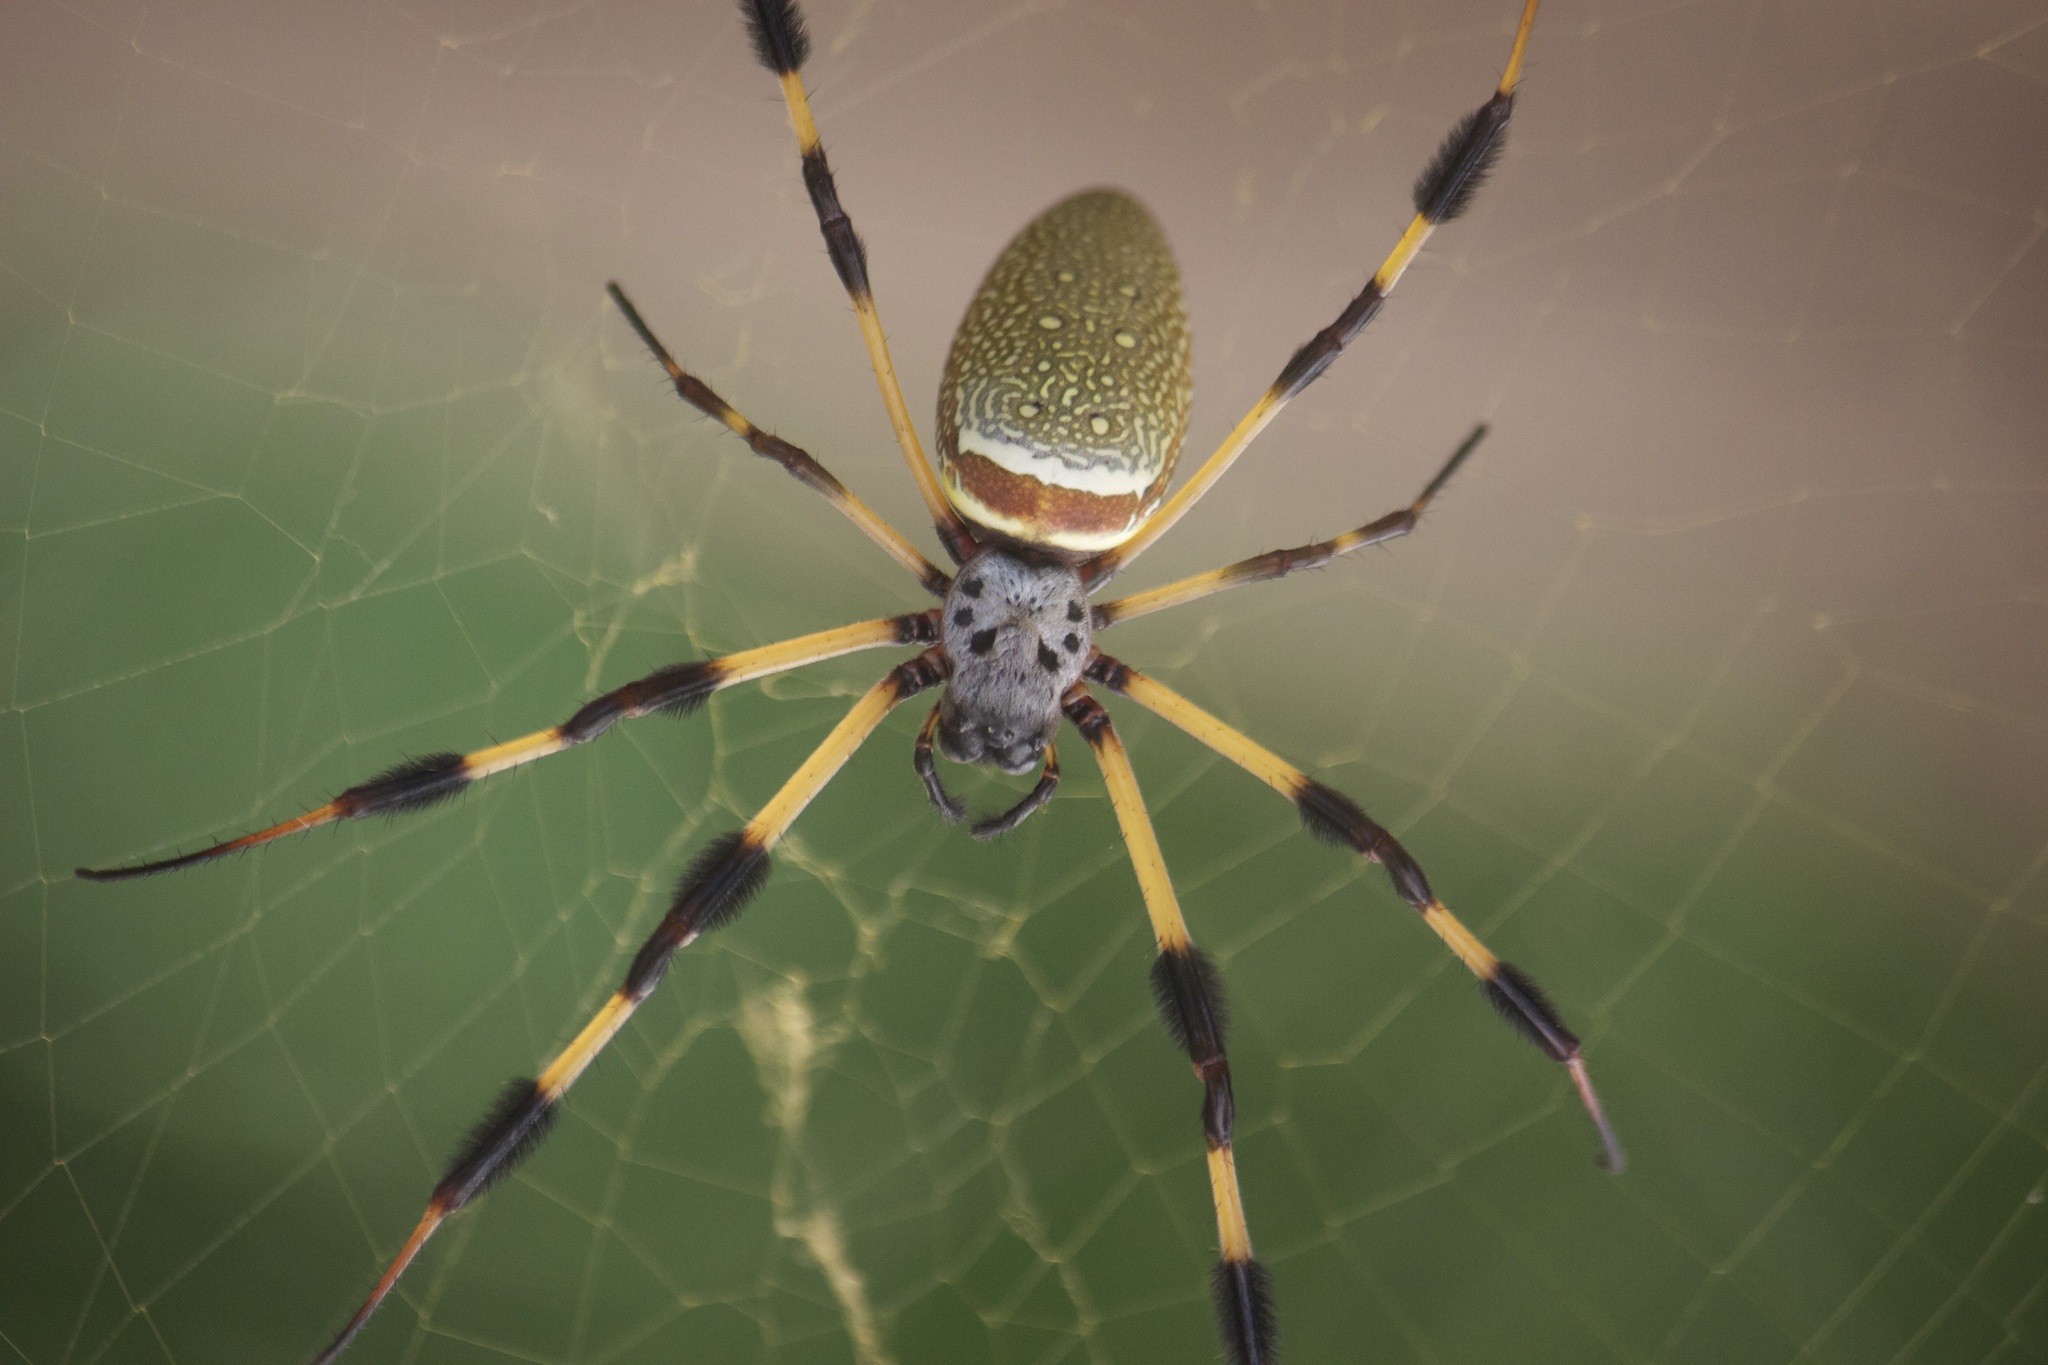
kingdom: Animalia
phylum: Arthropoda
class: Arachnida
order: Araneae
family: Araneidae
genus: Trichonephila
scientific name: Trichonephila clavipes
